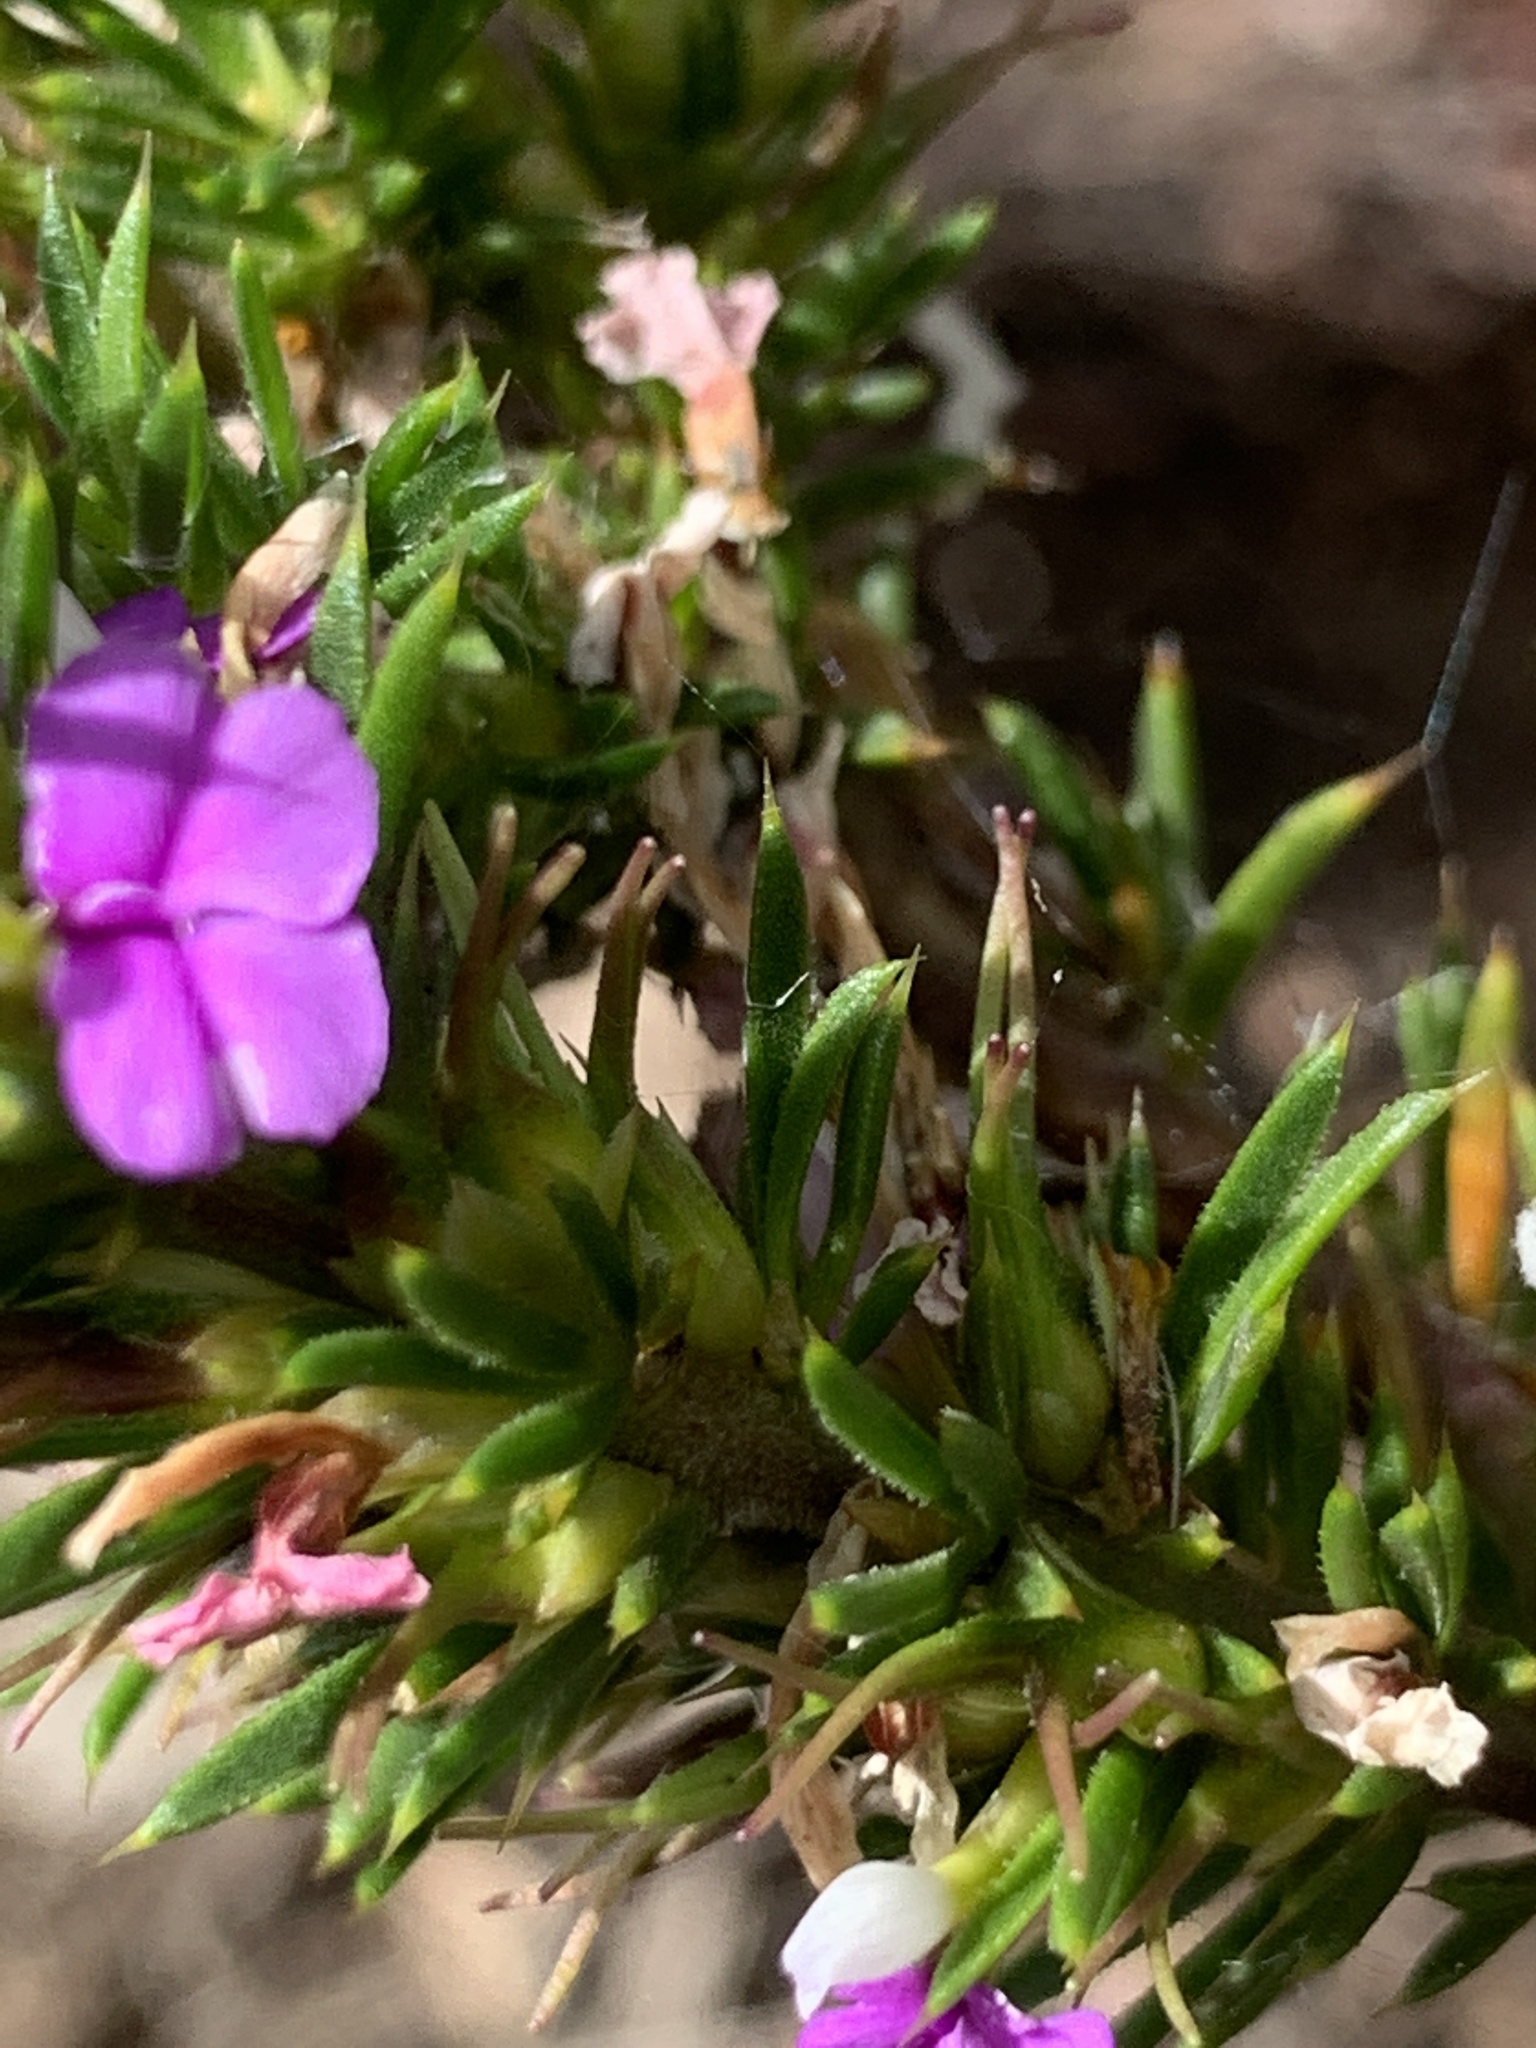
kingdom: Plantae
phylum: Tracheophyta
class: Magnoliopsida
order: Fabales
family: Polygalaceae
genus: Muraltia
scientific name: Muraltia heisteria
